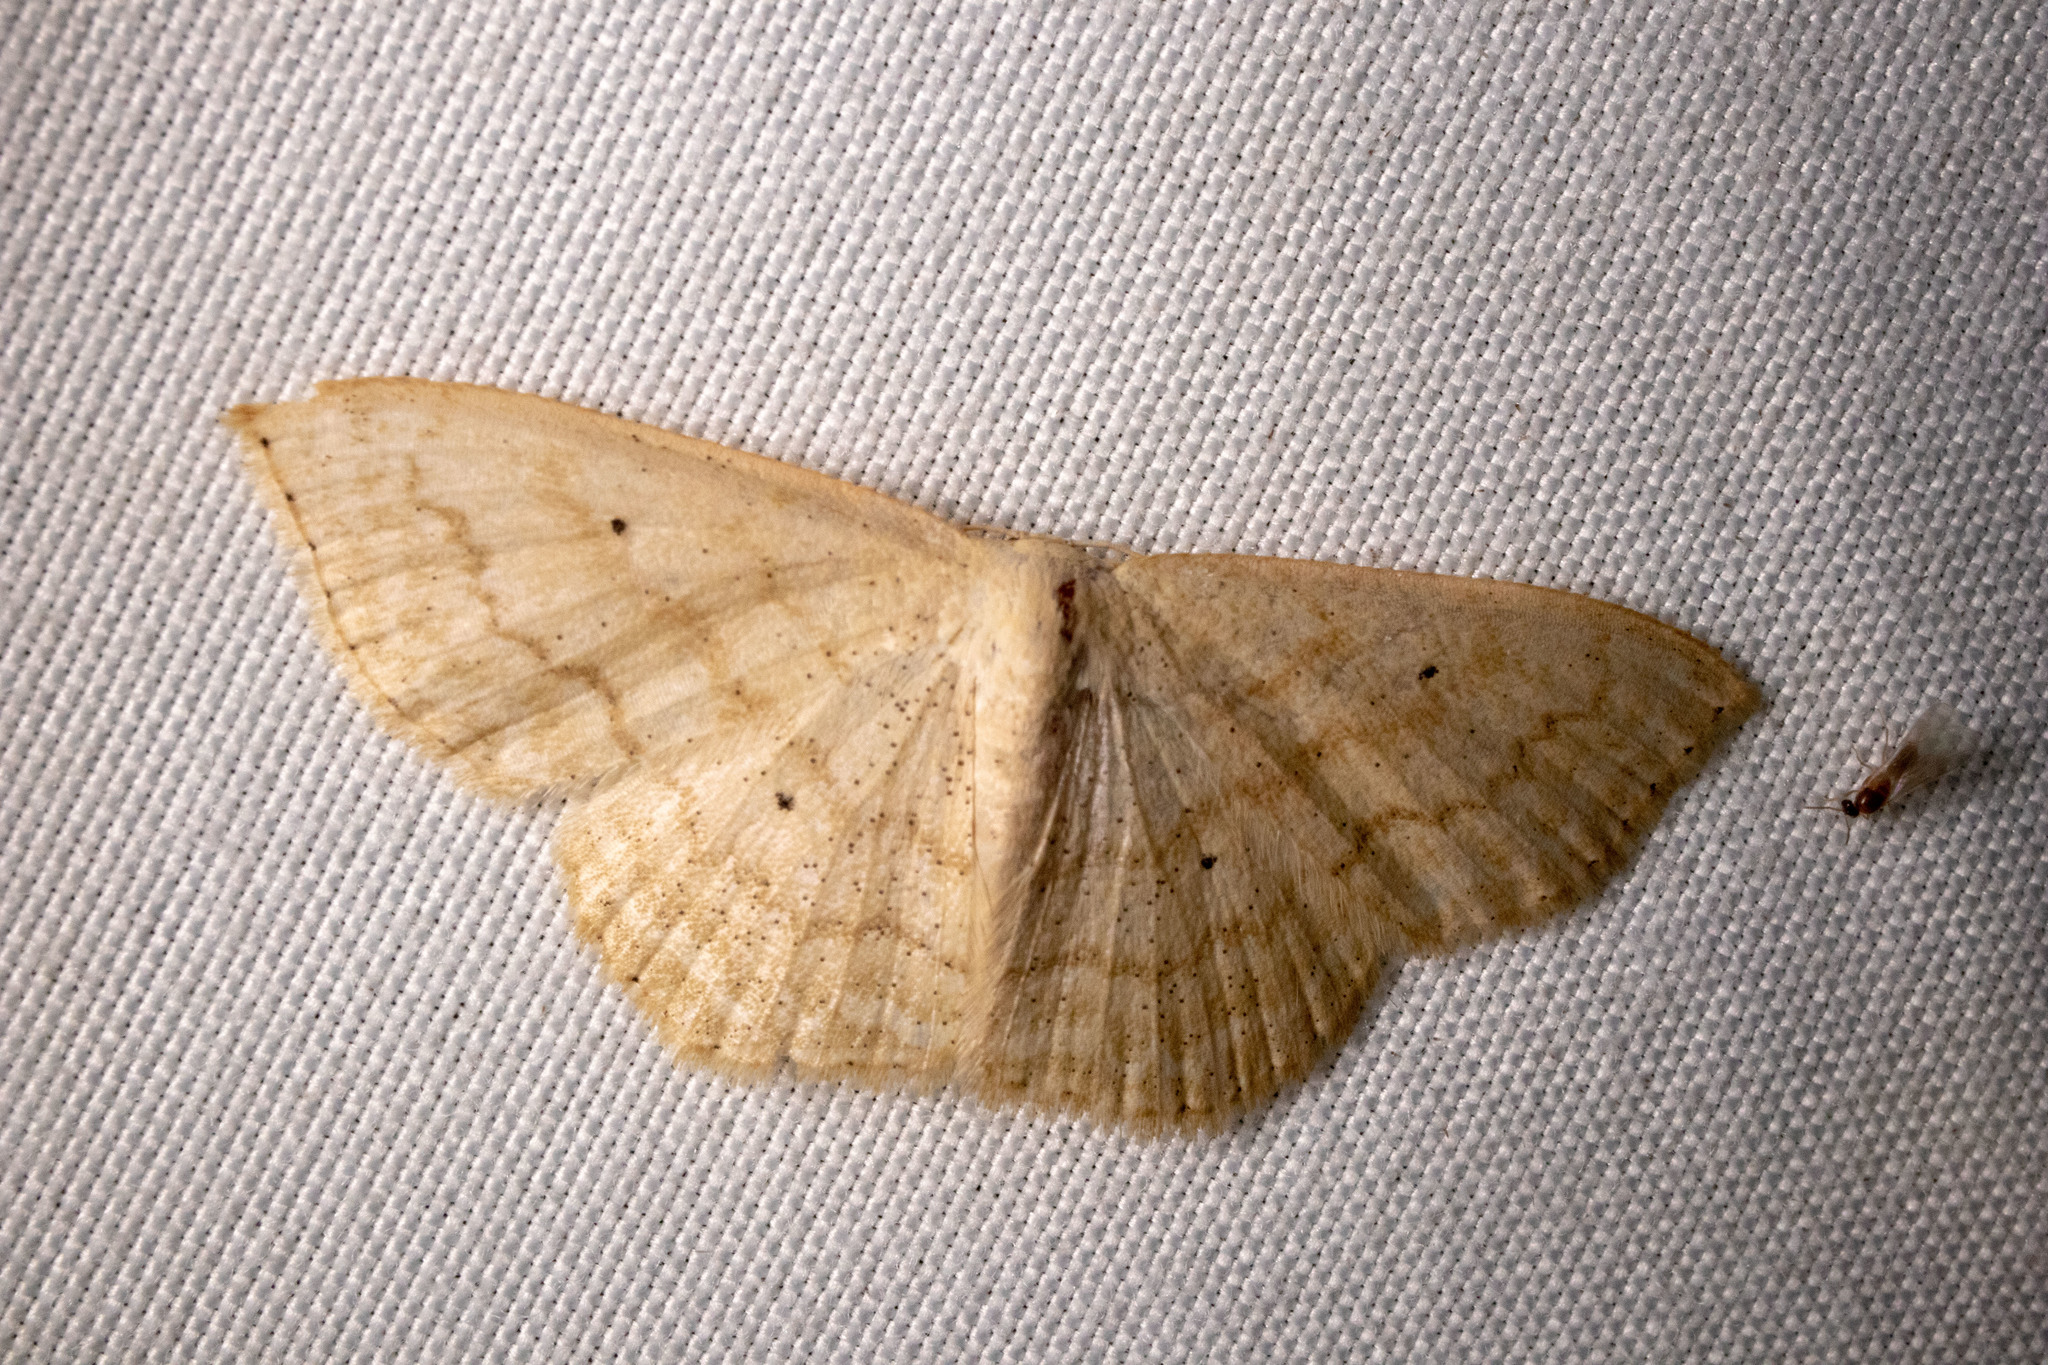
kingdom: Animalia
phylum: Arthropoda
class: Insecta
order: Lepidoptera
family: Geometridae
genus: Scopula
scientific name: Scopula limboundata
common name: Large lace border
